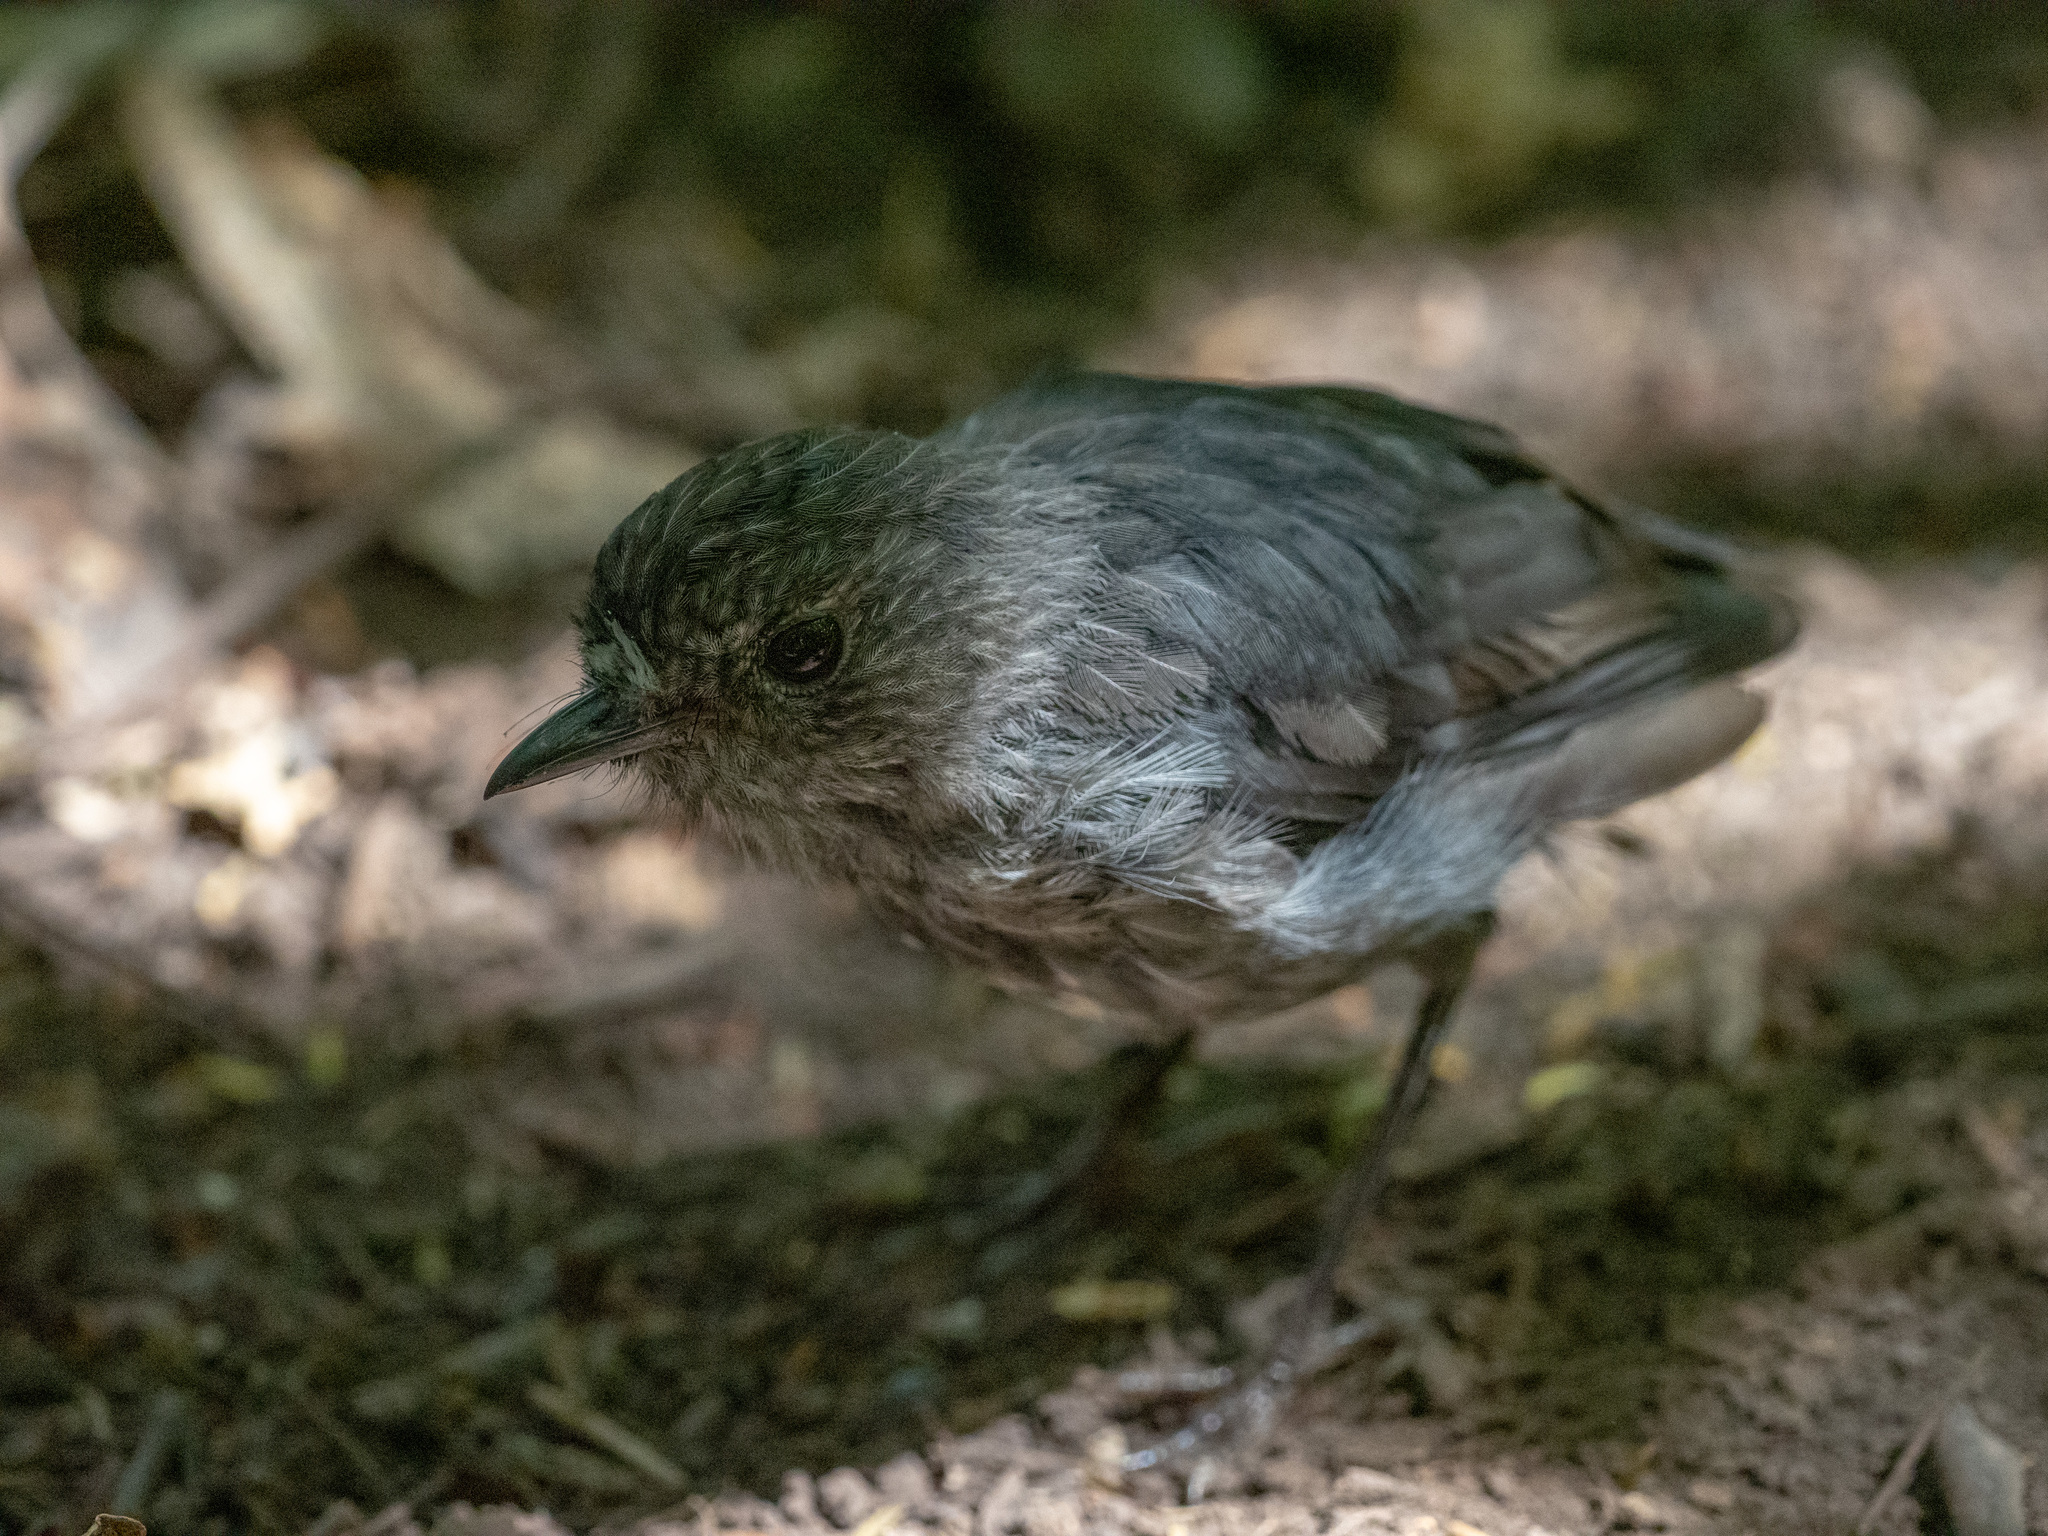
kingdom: Animalia
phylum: Chordata
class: Aves
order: Passeriformes
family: Petroicidae
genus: Petroica
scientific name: Petroica australis
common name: New zealand robin
